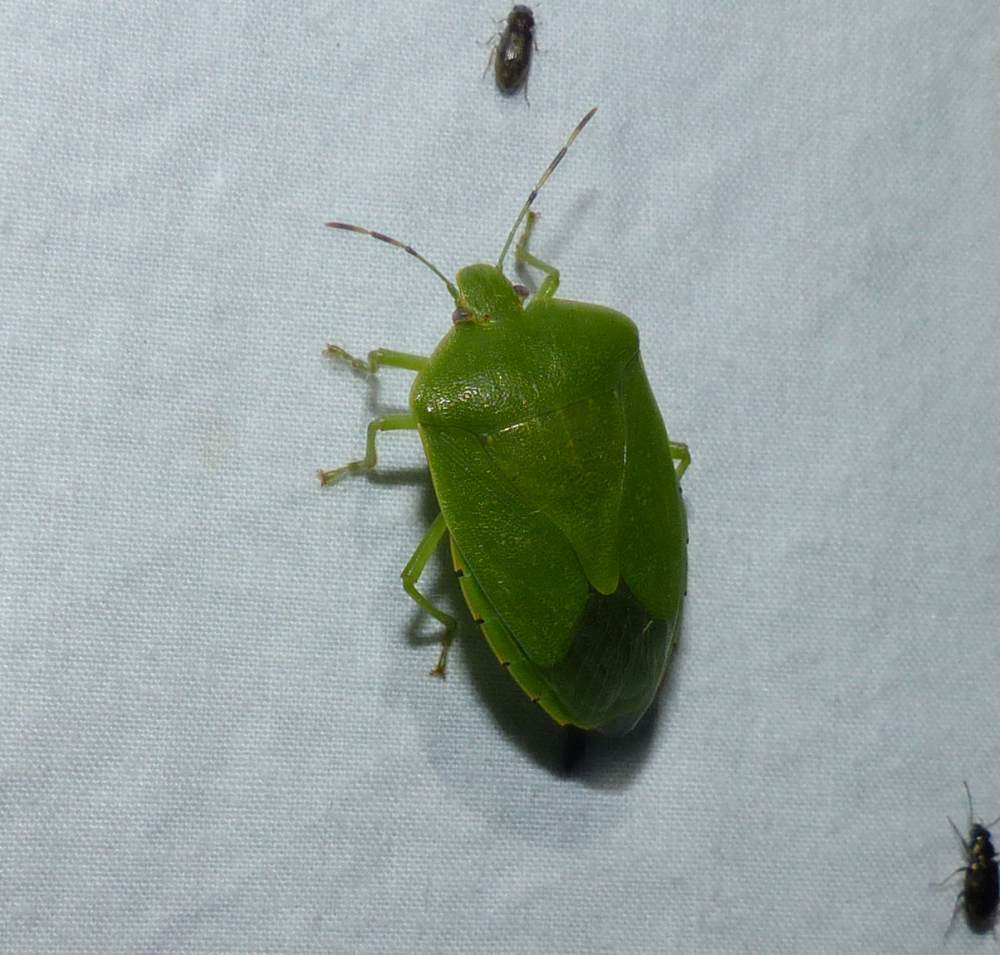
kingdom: Animalia
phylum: Arthropoda
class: Insecta
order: Hemiptera
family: Pentatomidae
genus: Chinavia
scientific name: Chinavia hilaris
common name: Green stink bug
